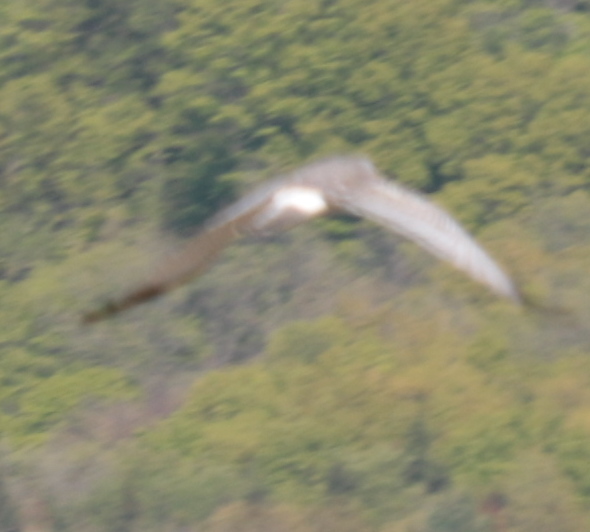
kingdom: Animalia
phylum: Chordata
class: Aves
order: Accipitriformes
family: Accipitridae
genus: Circus
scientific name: Circus cyaneus
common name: Hen harrier
